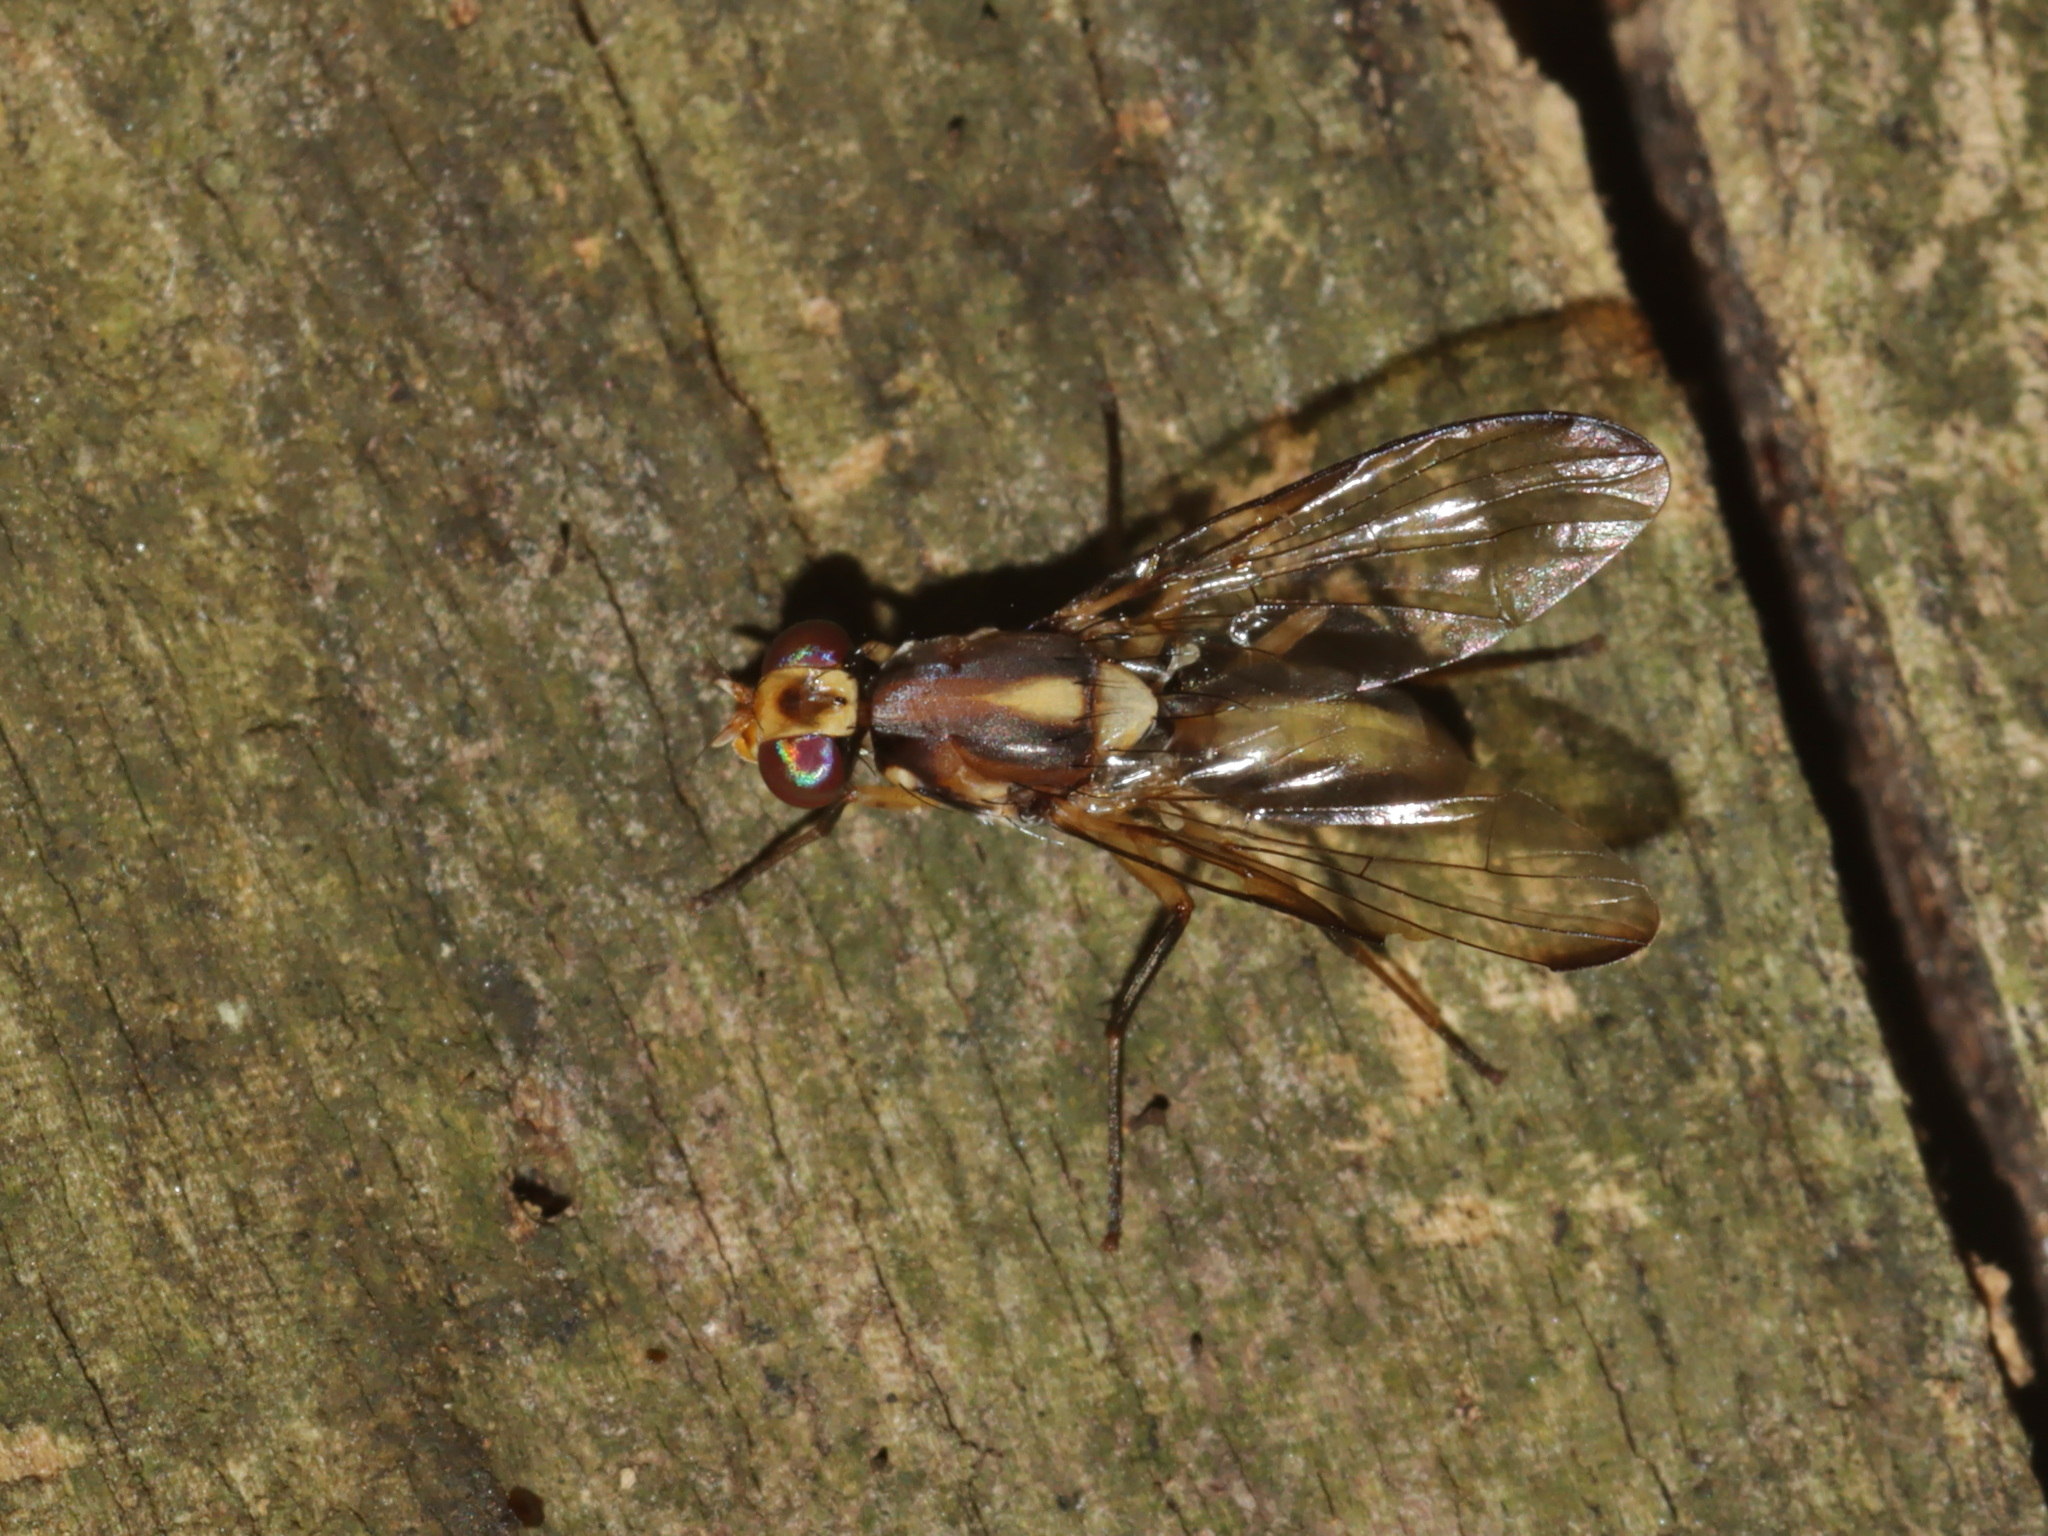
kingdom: Animalia
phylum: Arthropoda
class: Insecta
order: Diptera
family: Tephritidae
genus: Dimeringophrys
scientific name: Dimeringophrys pallidipennis
